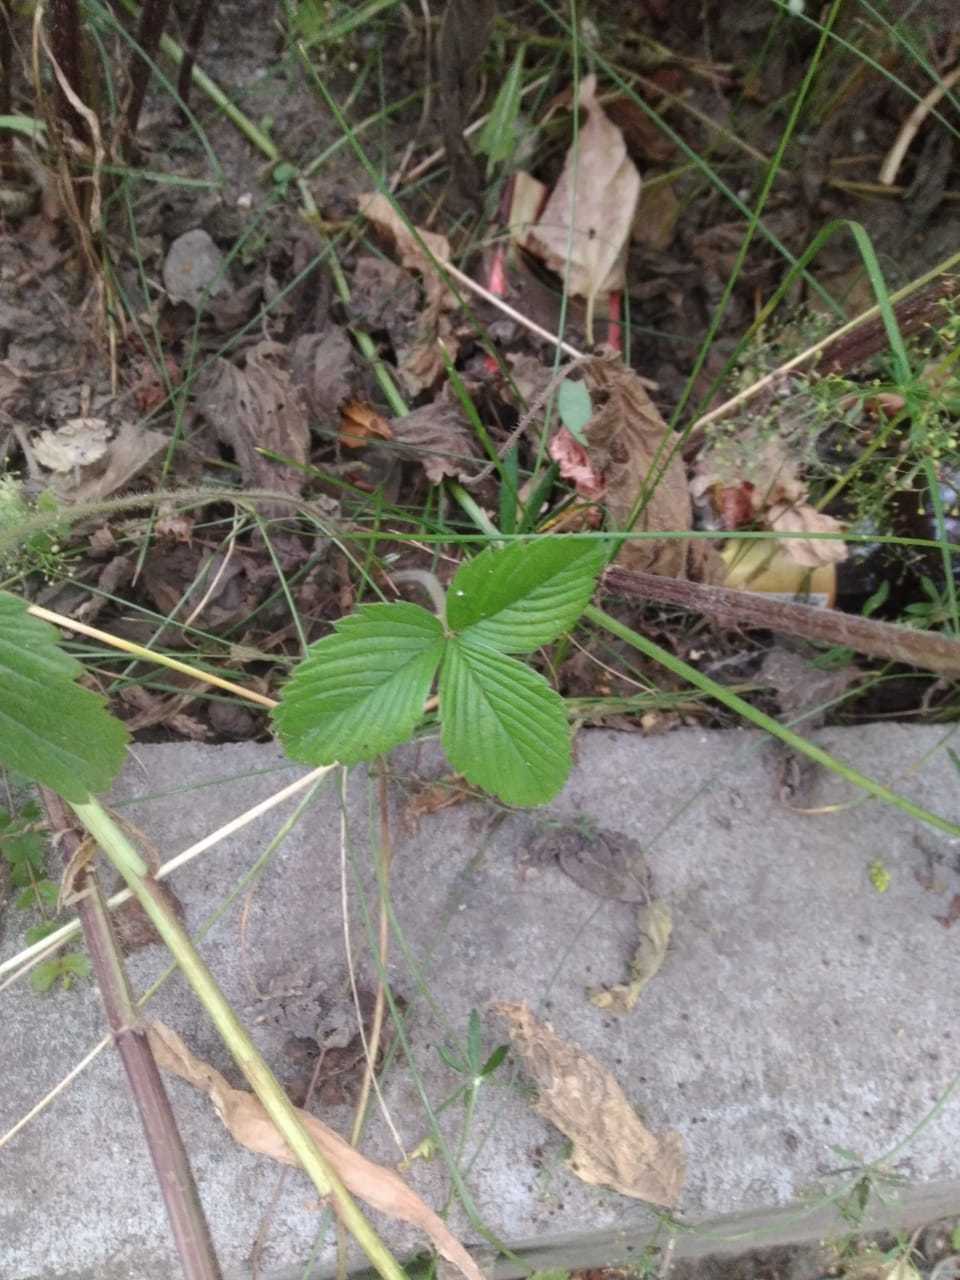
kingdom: Plantae
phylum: Tracheophyta
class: Magnoliopsida
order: Rosales
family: Rosaceae
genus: Fragaria
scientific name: Fragaria viridis
